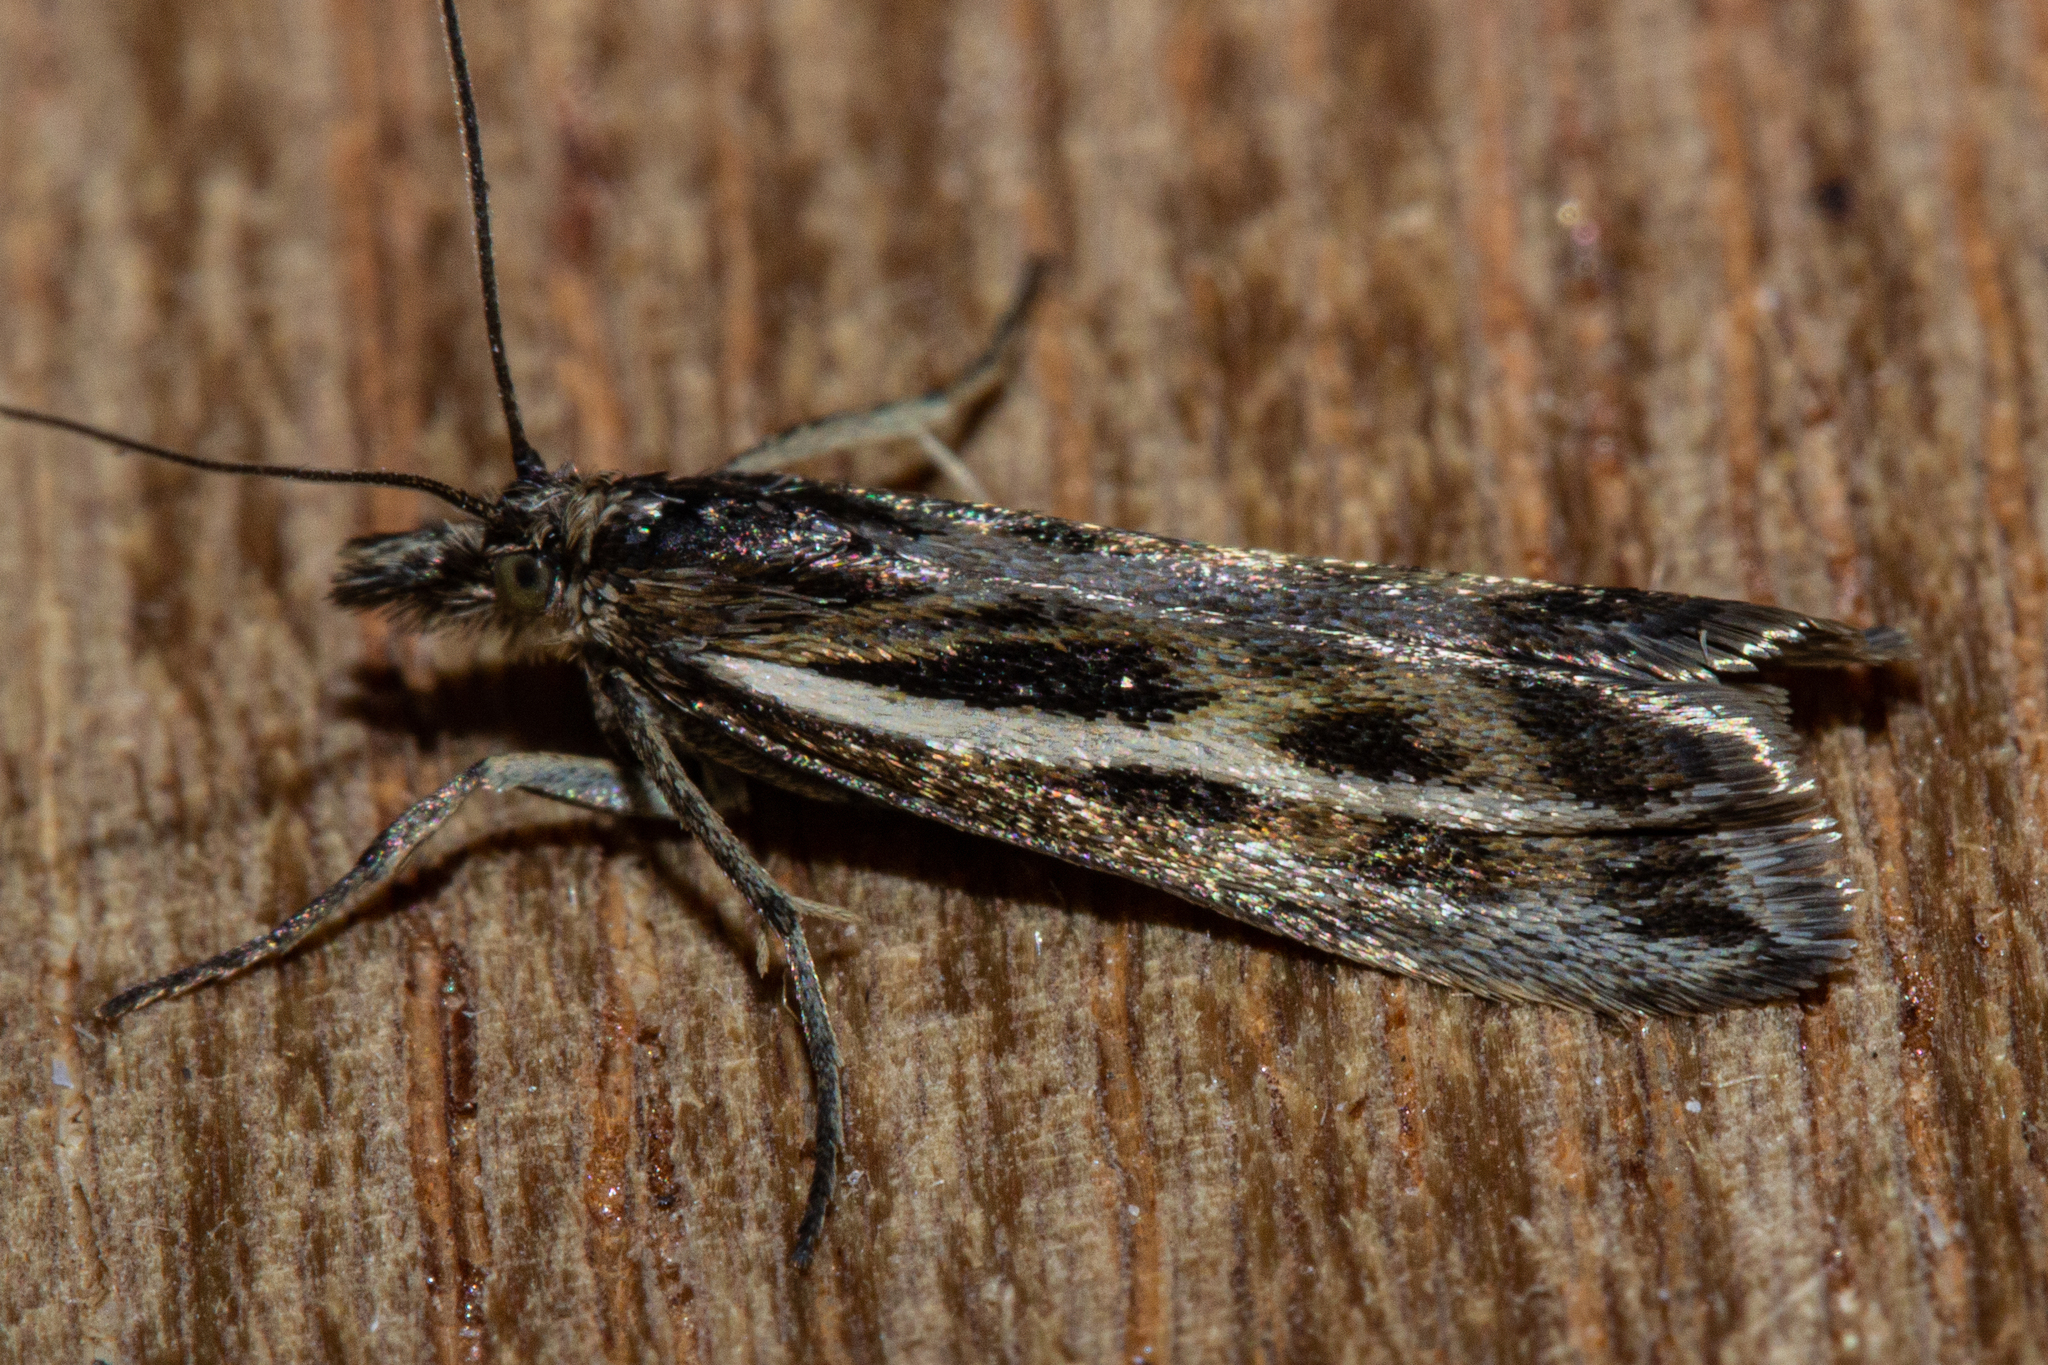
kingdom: Animalia
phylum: Arthropoda
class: Insecta
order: Lepidoptera
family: Crambidae
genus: Orocrambus
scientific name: Orocrambus corruptus
